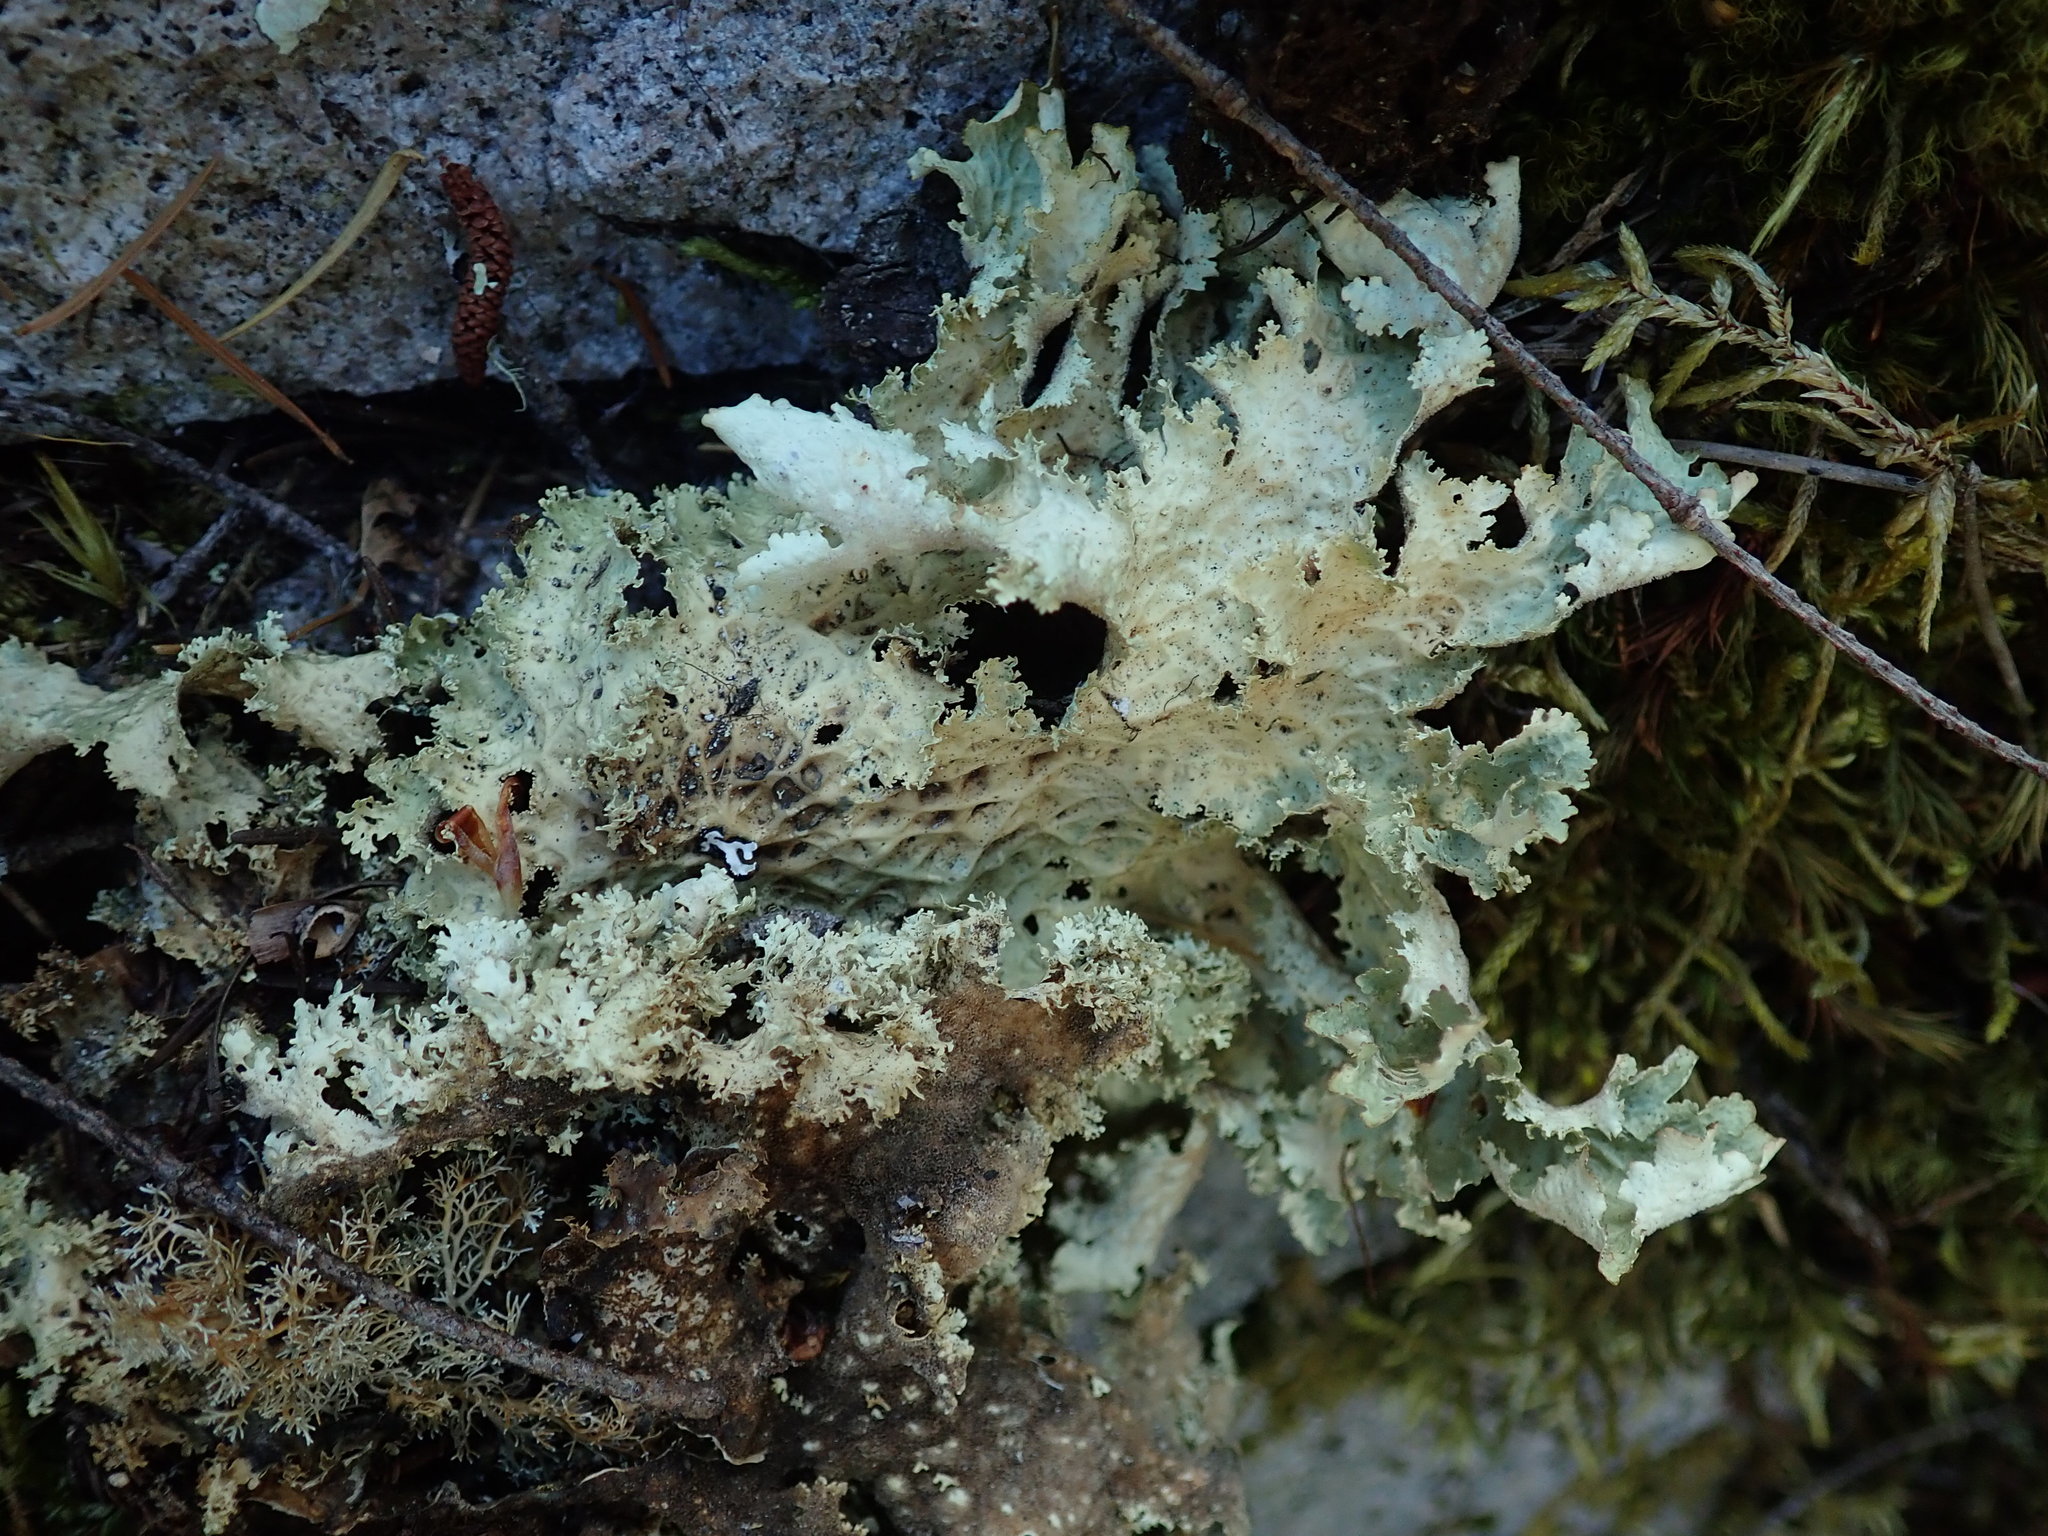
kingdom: Fungi
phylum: Ascomycota
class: Lecanoromycetes
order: Peltigerales
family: Lobariaceae
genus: Lobaria
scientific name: Lobaria oregana
